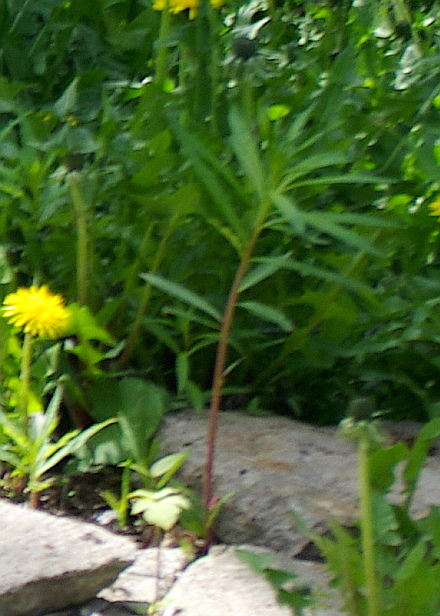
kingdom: Plantae
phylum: Tracheophyta
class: Magnoliopsida
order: Myrtales
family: Onagraceae
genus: Chamaenerion
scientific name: Chamaenerion angustifolium
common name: Fireweed
